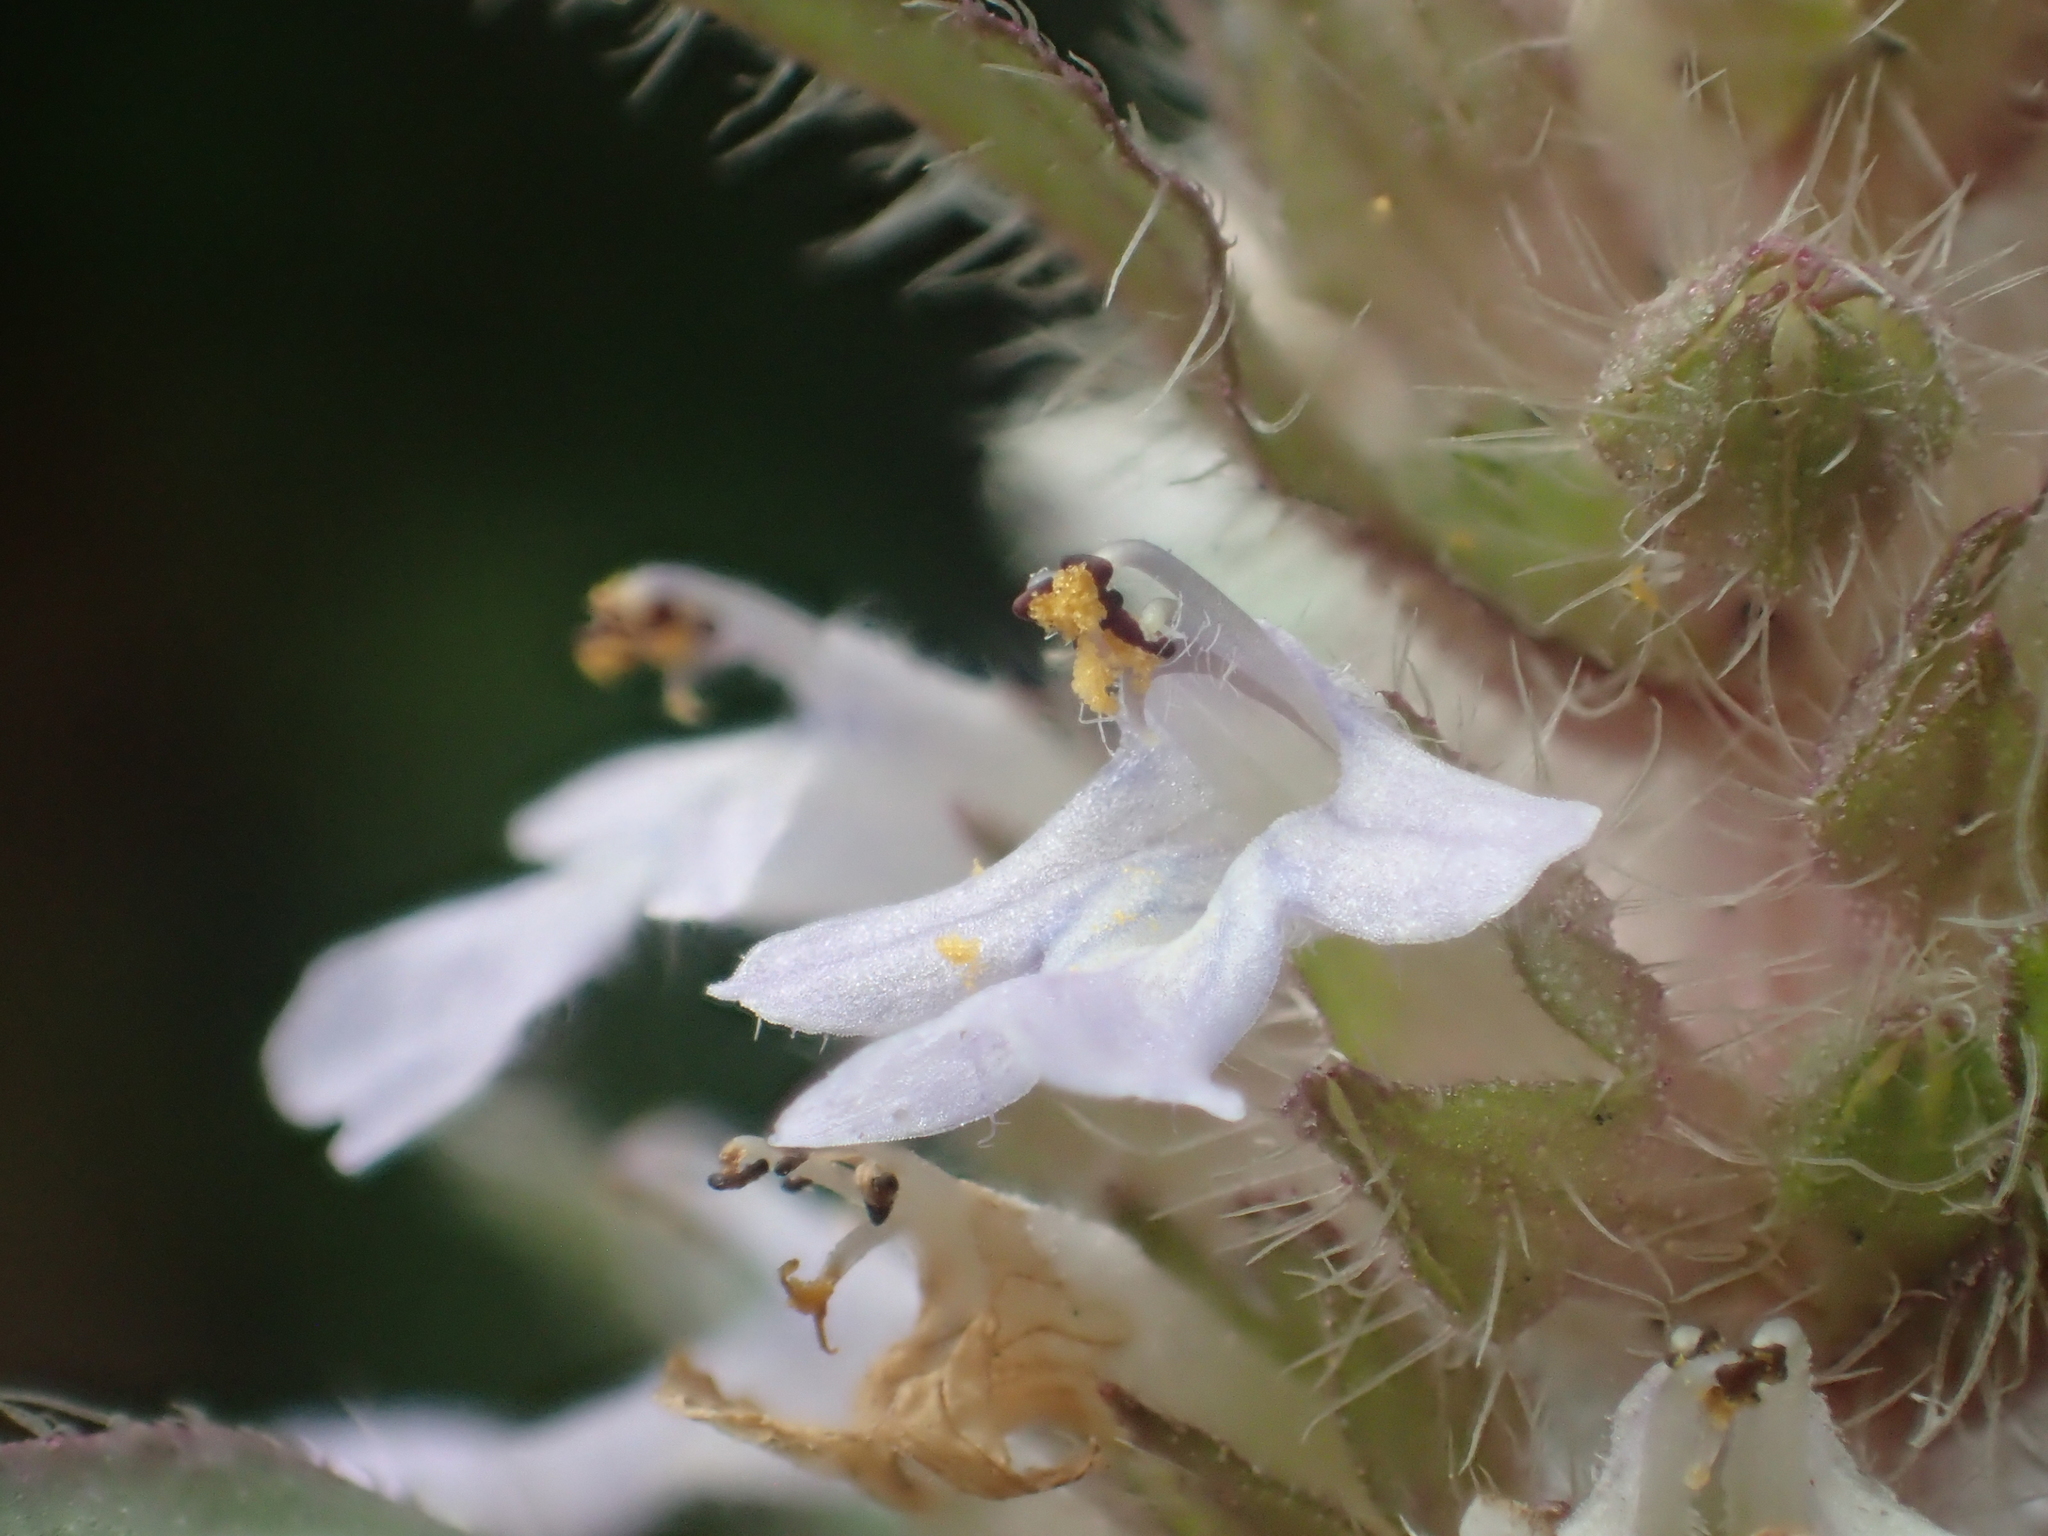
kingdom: Plantae
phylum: Tracheophyta
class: Magnoliopsida
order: Lamiales
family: Lamiaceae
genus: Ajuga
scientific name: Ajuga taiwanensis
